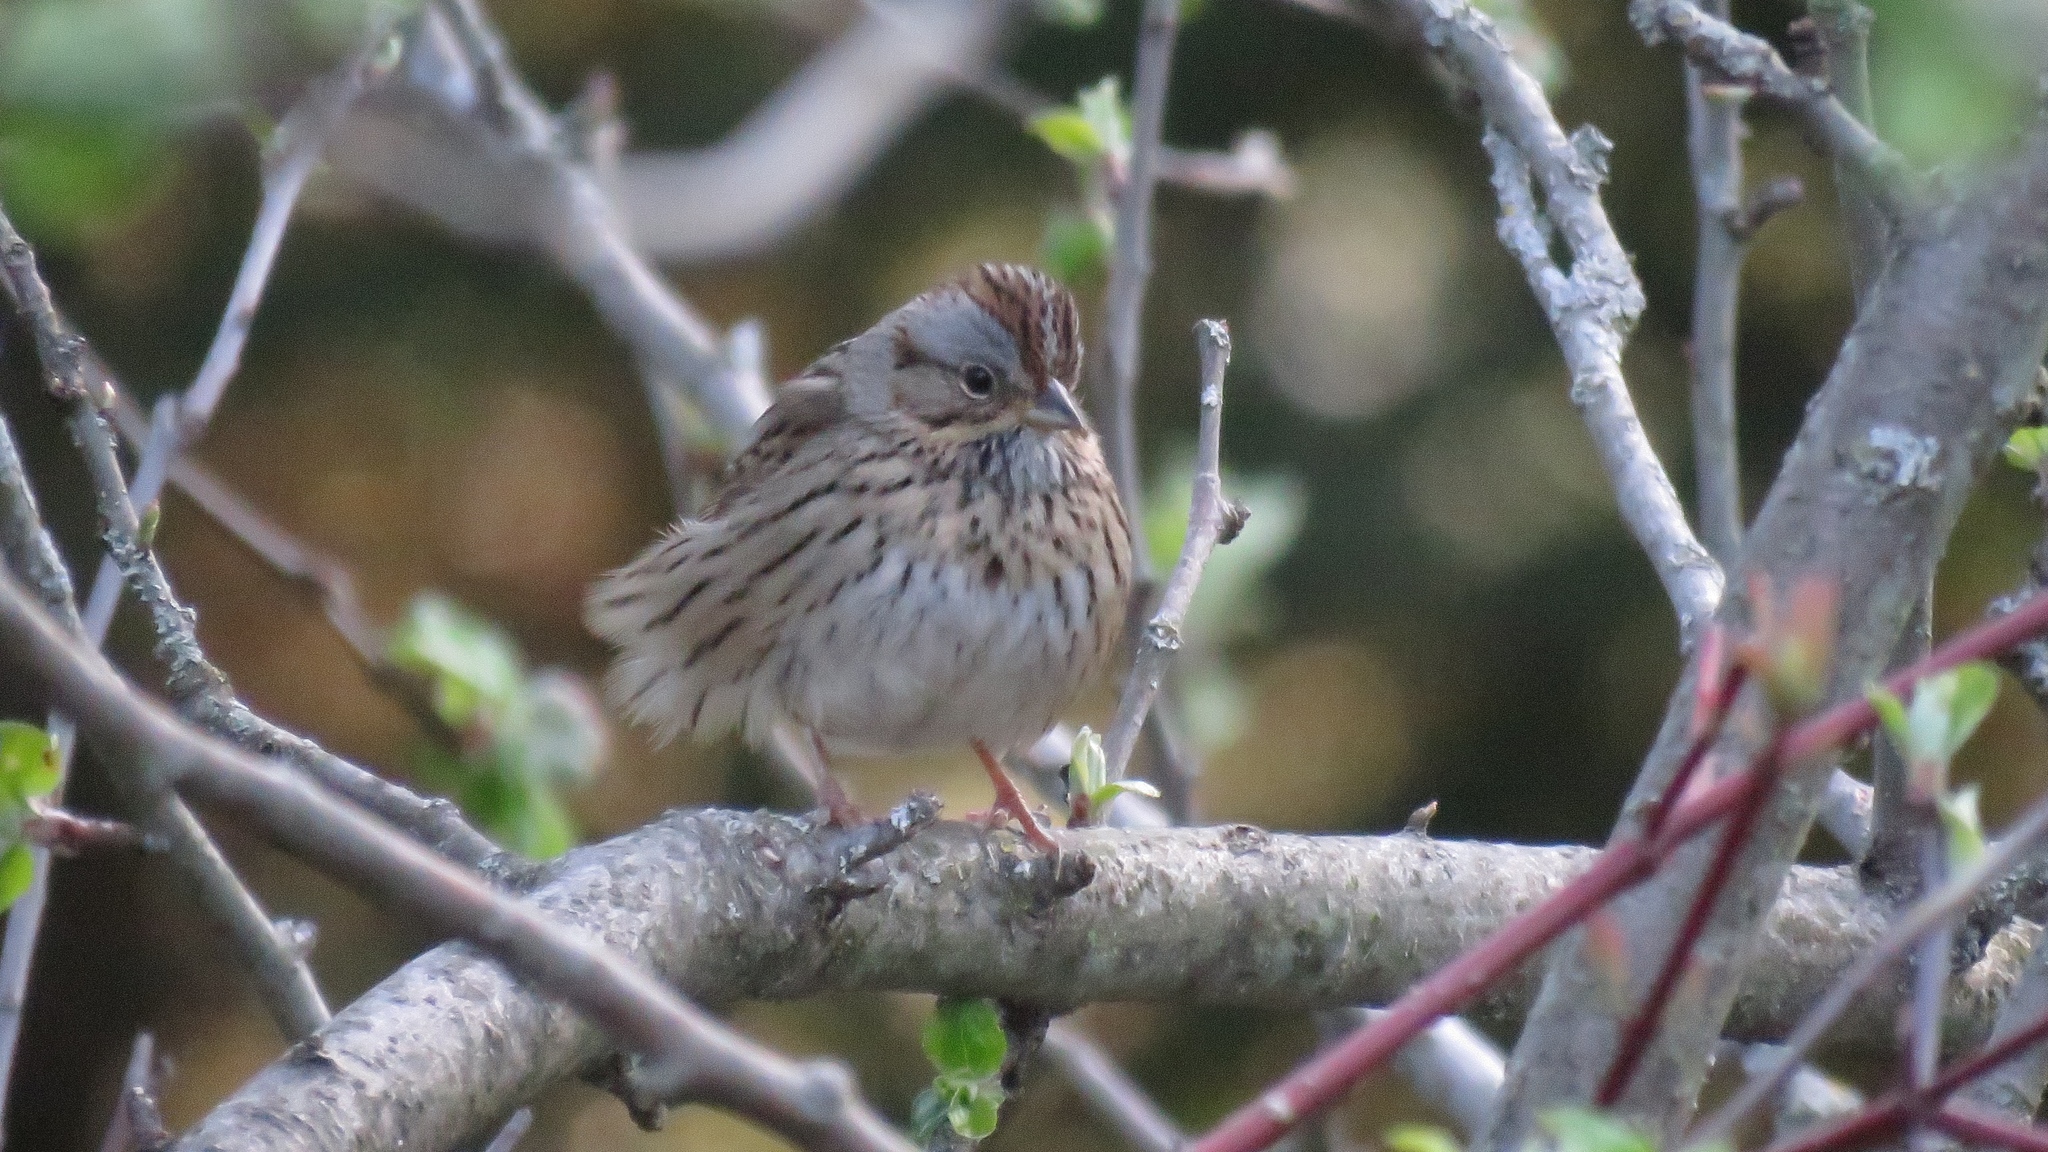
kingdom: Animalia
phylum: Chordata
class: Aves
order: Passeriformes
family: Passerellidae
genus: Melospiza
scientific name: Melospiza lincolnii
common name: Lincoln's sparrow
